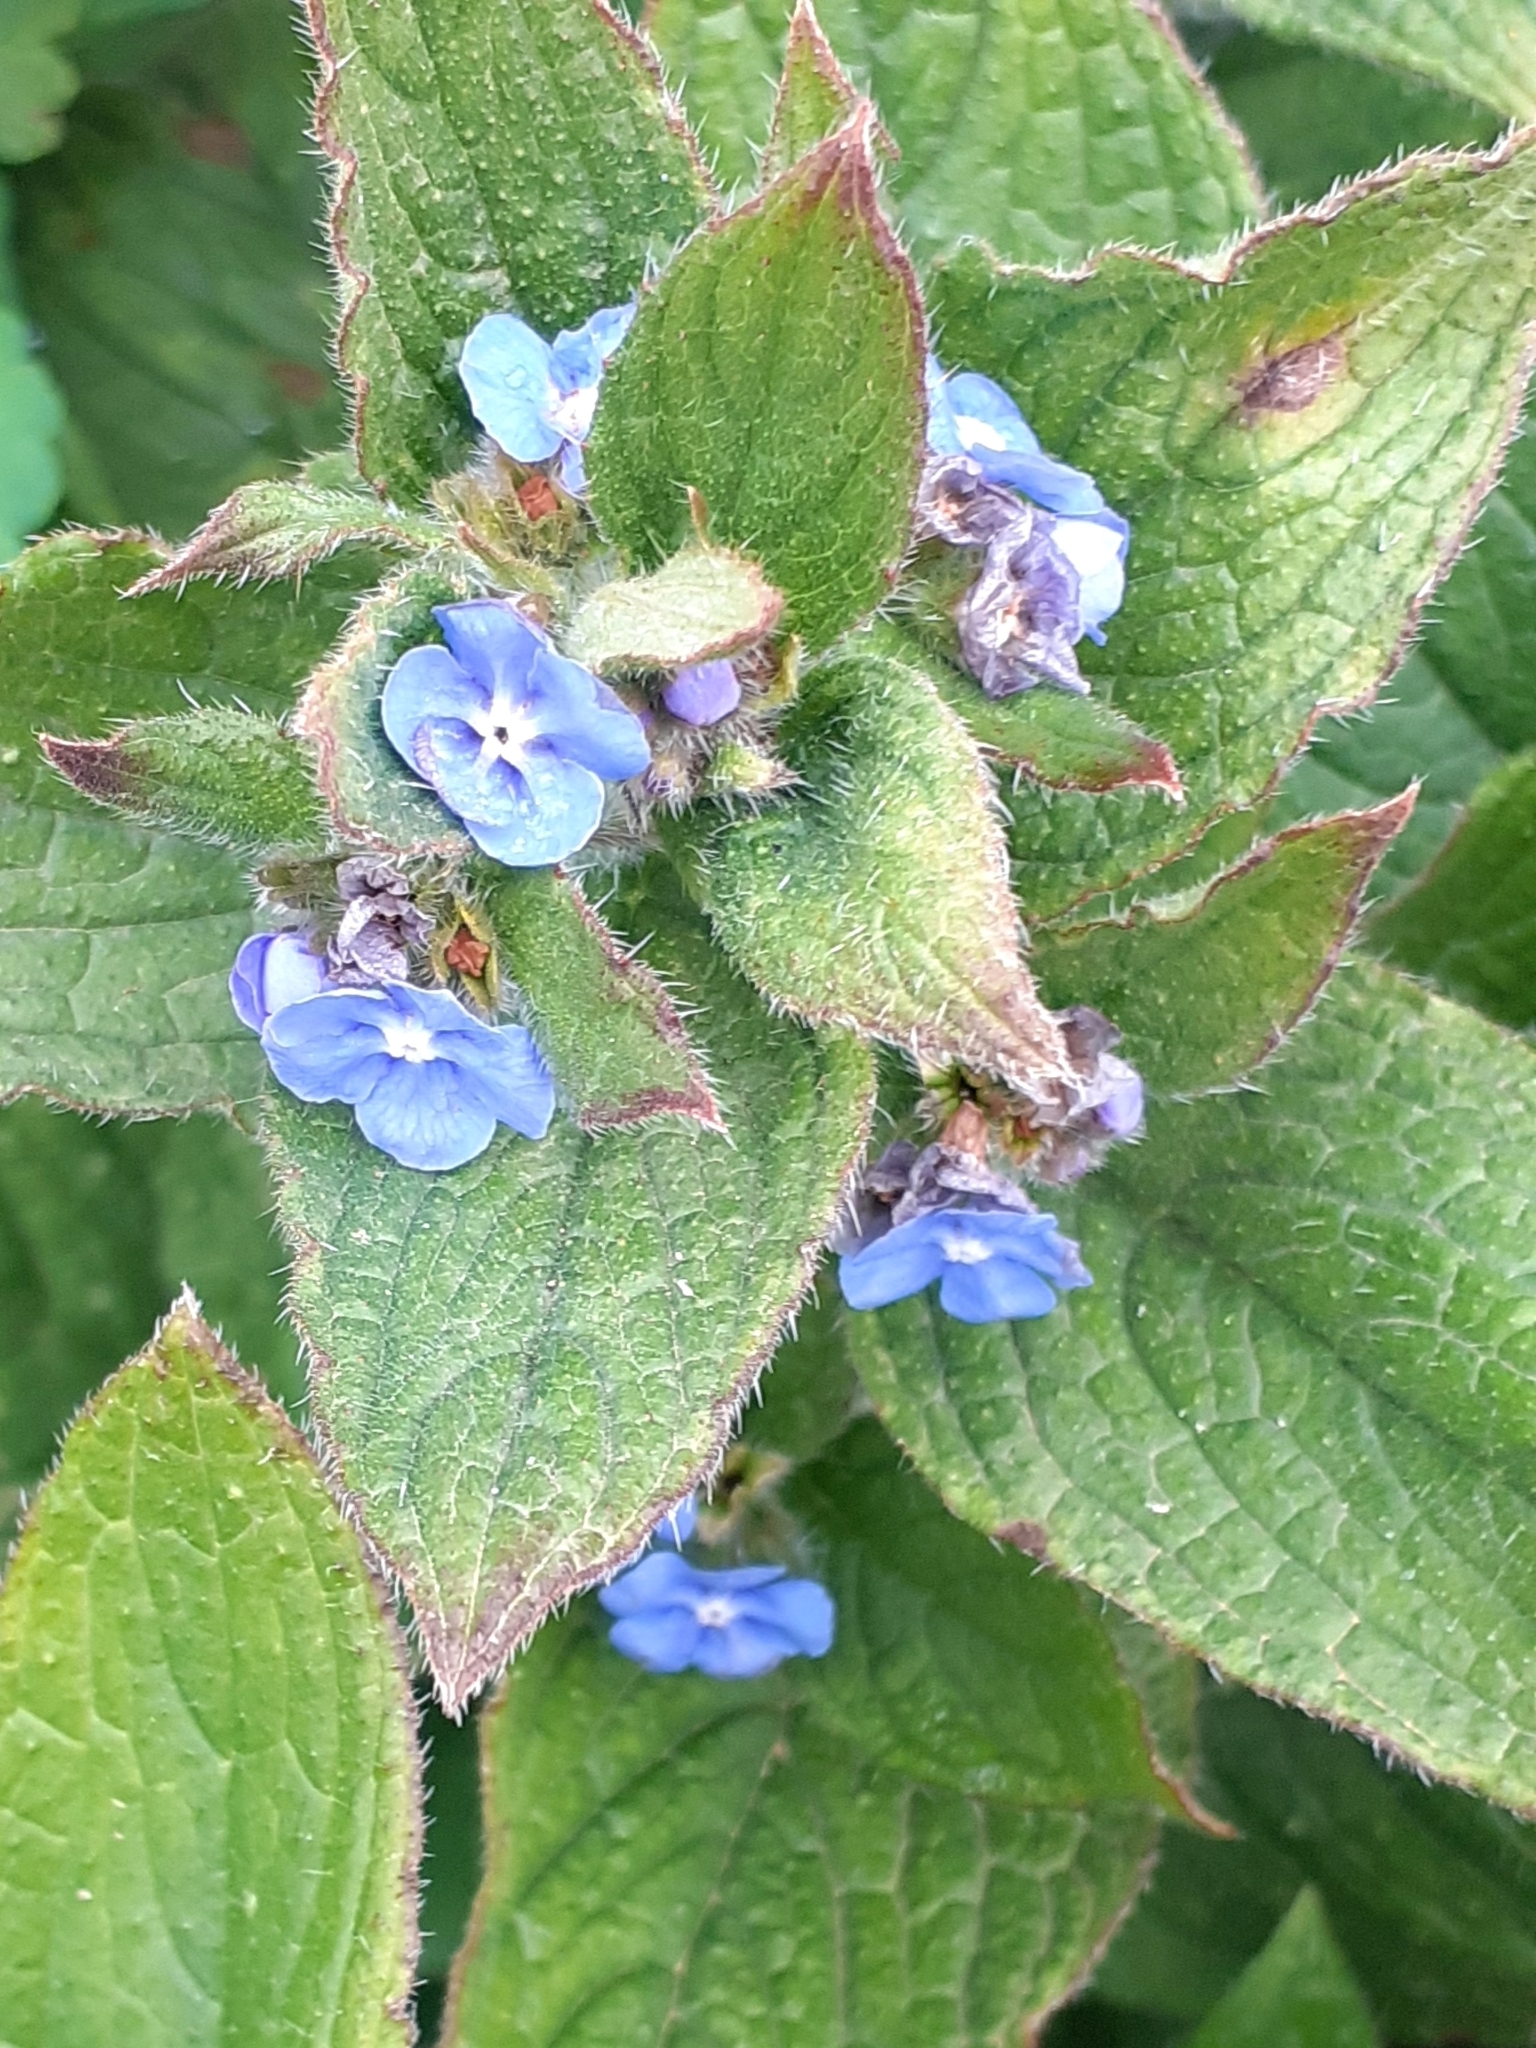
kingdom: Plantae
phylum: Tracheophyta
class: Magnoliopsida
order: Boraginales
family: Boraginaceae
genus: Pentaglottis
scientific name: Pentaglottis sempervirens
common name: Green alkanet
